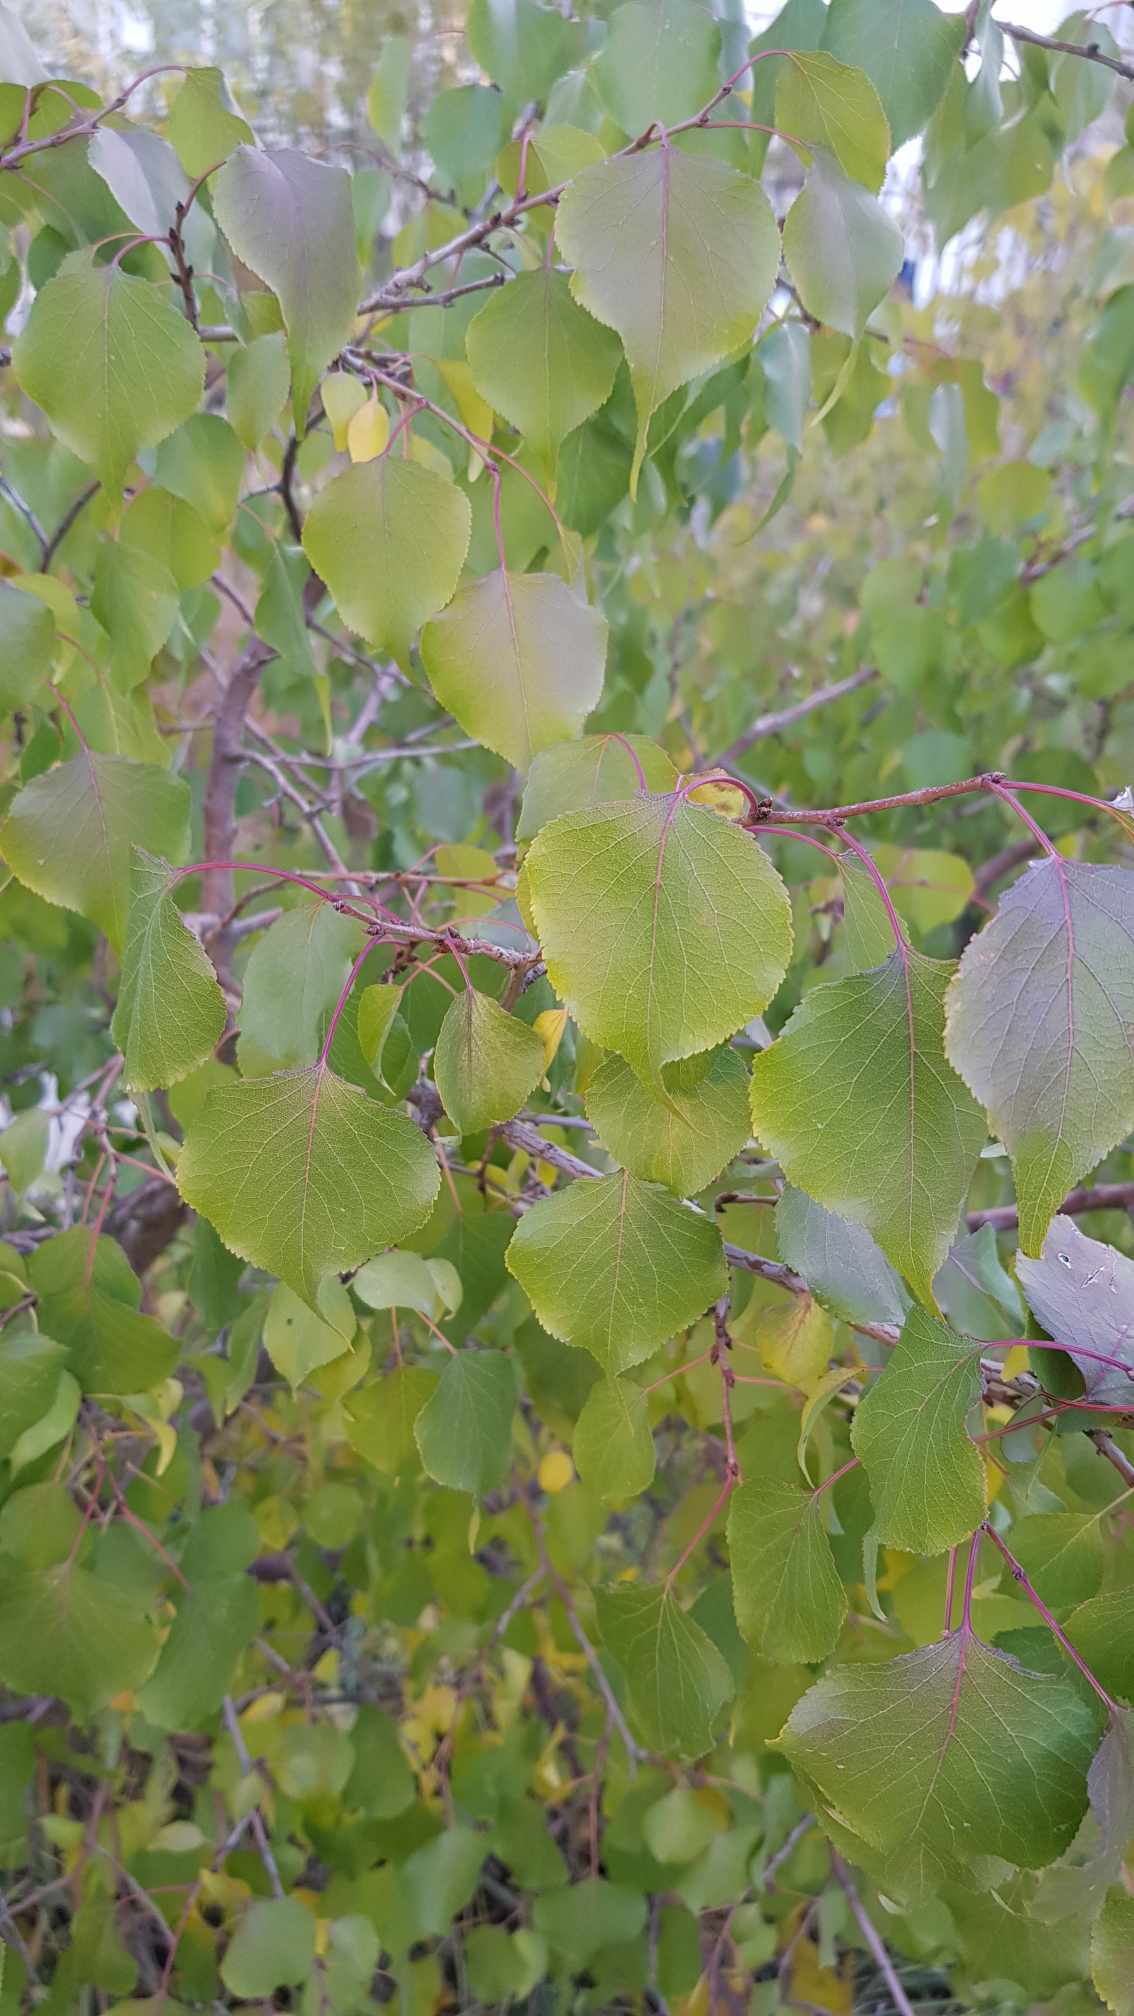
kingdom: Plantae
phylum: Tracheophyta
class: Magnoliopsida
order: Rosales
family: Rosaceae
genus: Prunus
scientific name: Prunus sibirica
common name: Siberian apricot
